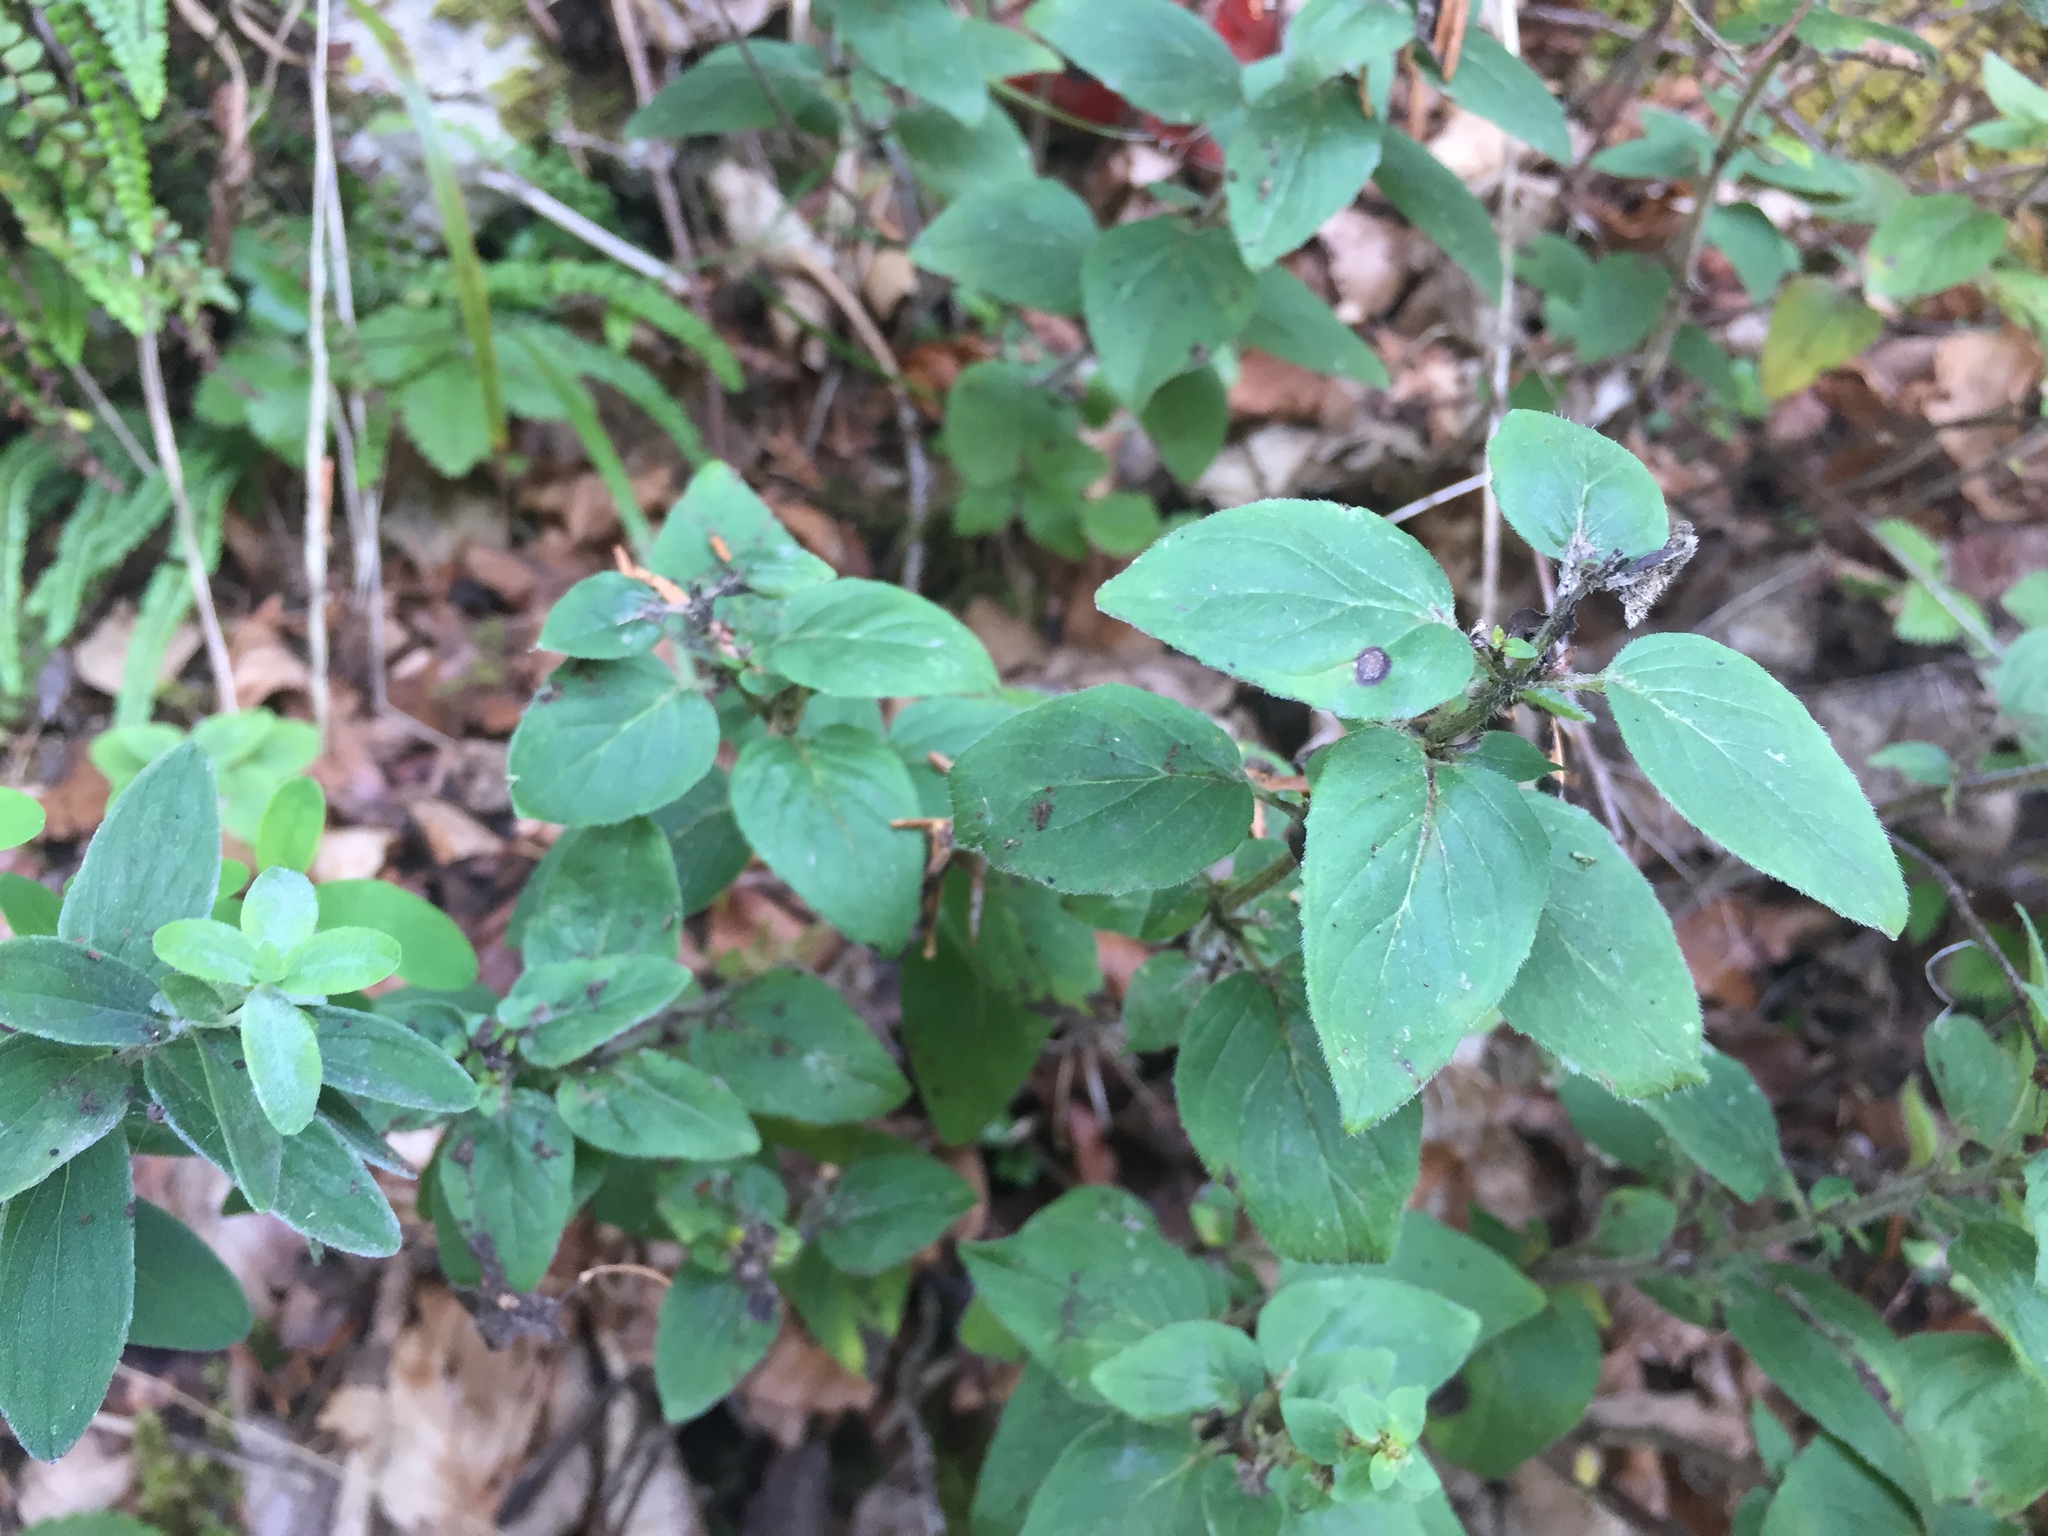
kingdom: Plantae
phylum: Tracheophyta
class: Magnoliopsida
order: Lamiales
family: Lamiaceae
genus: Origanum
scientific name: Origanum vulgare
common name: Wild marjoram
